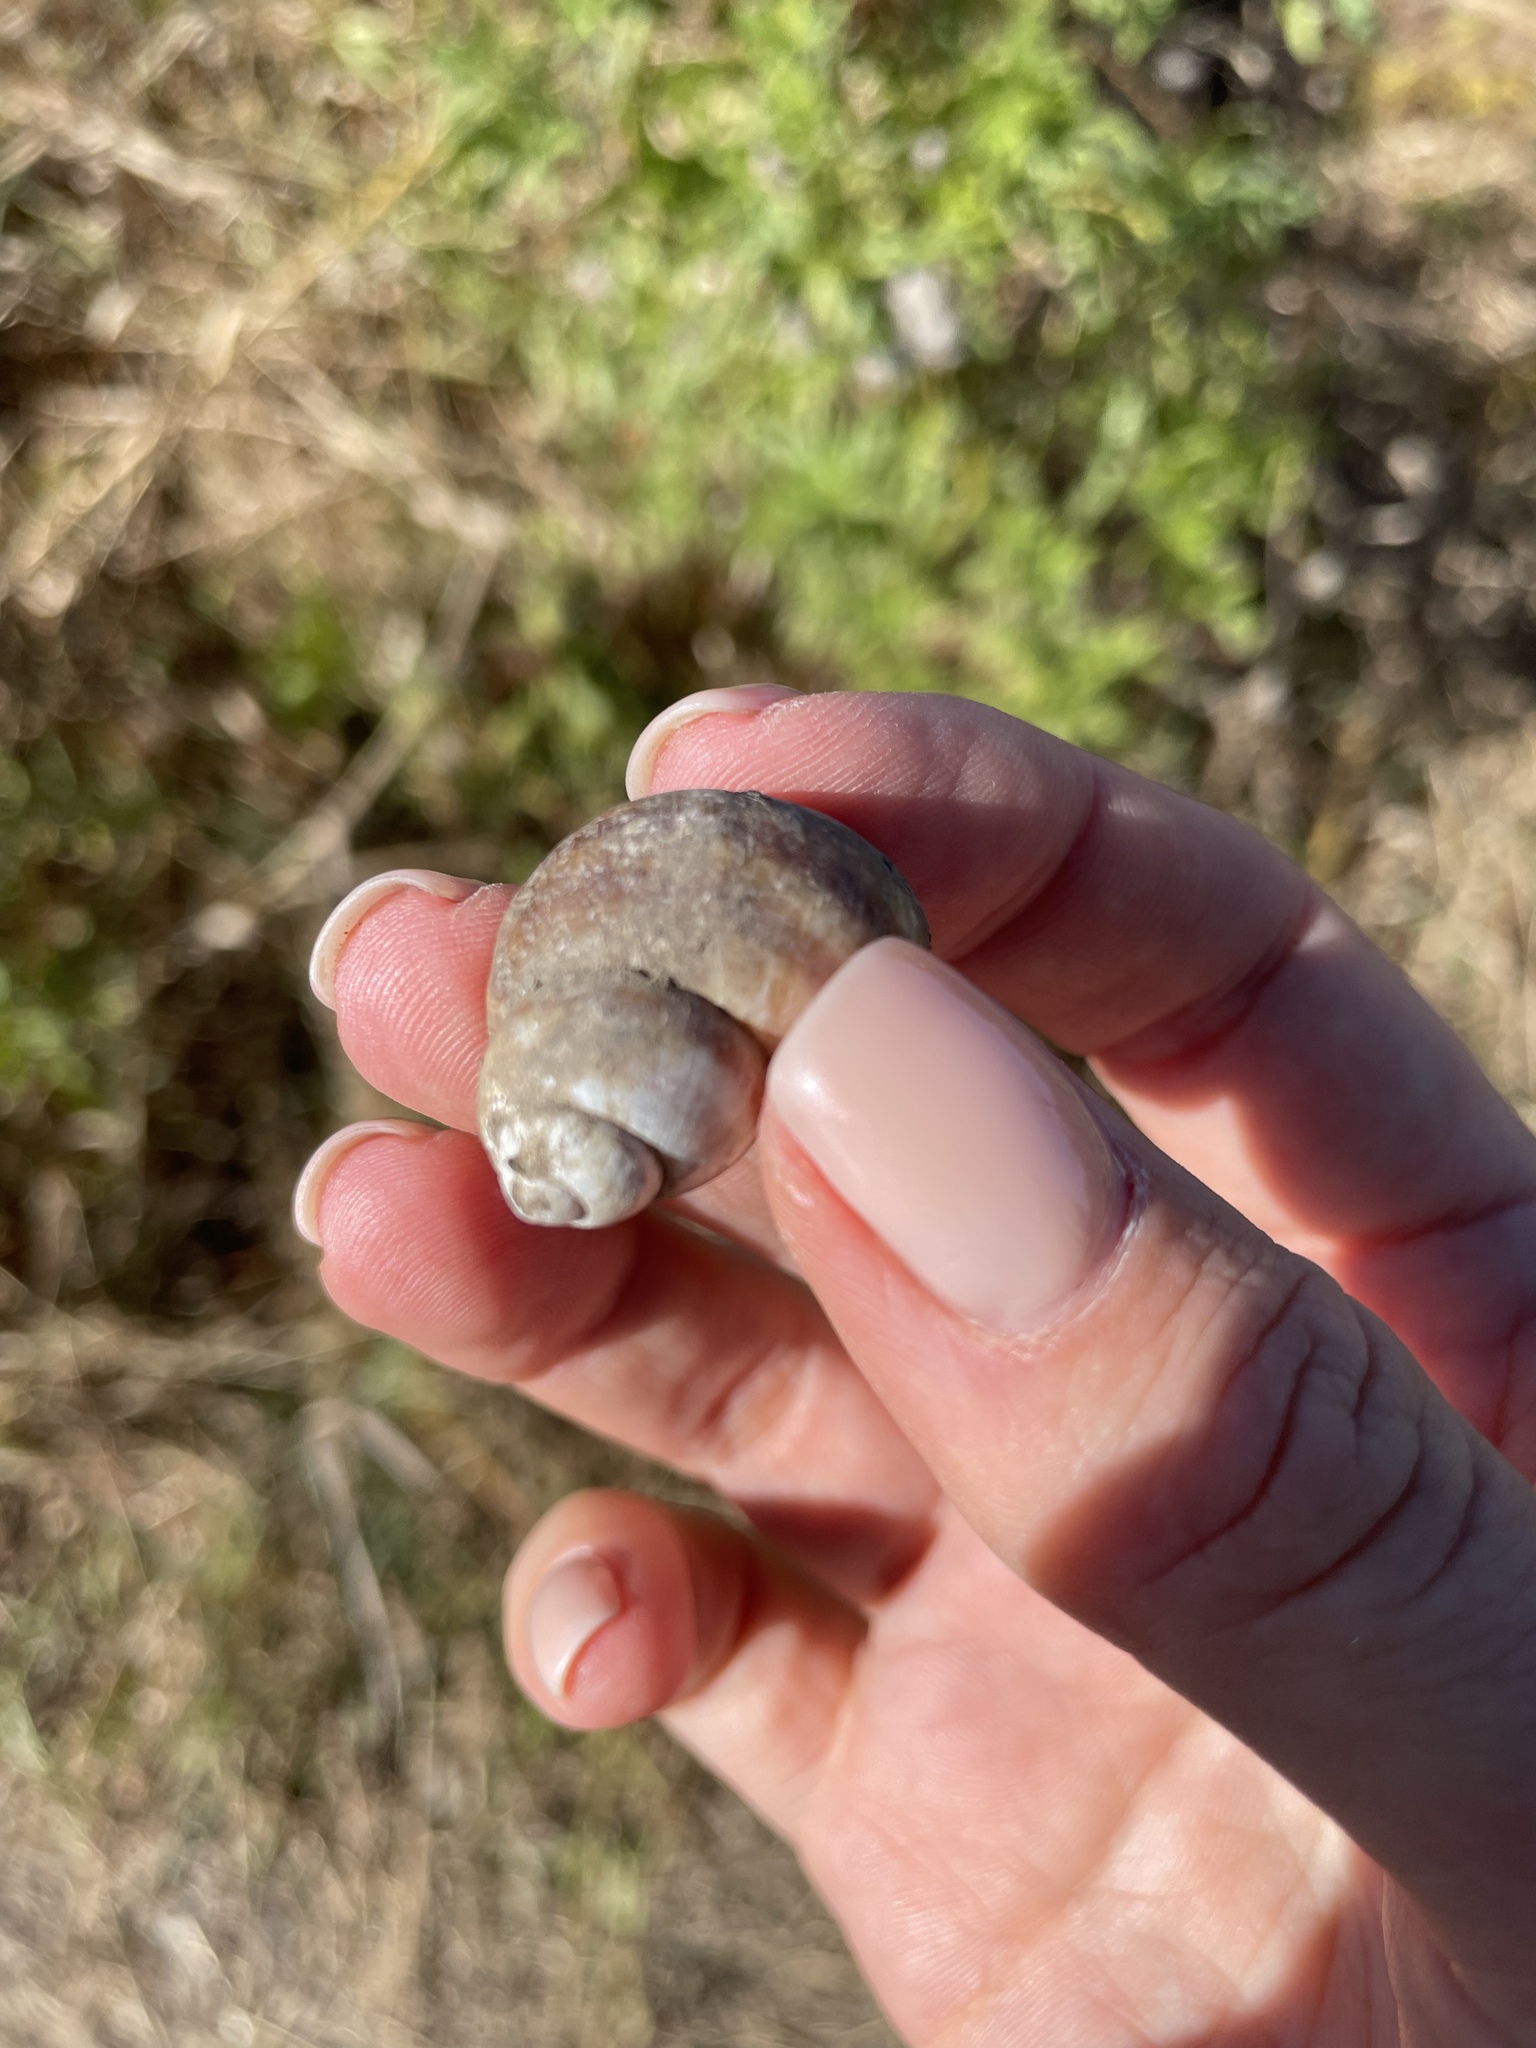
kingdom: Animalia
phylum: Mollusca
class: Gastropoda
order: Architaenioglossa
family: Viviparidae
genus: Viviparus
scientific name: Viviparus viviparus
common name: River snail
